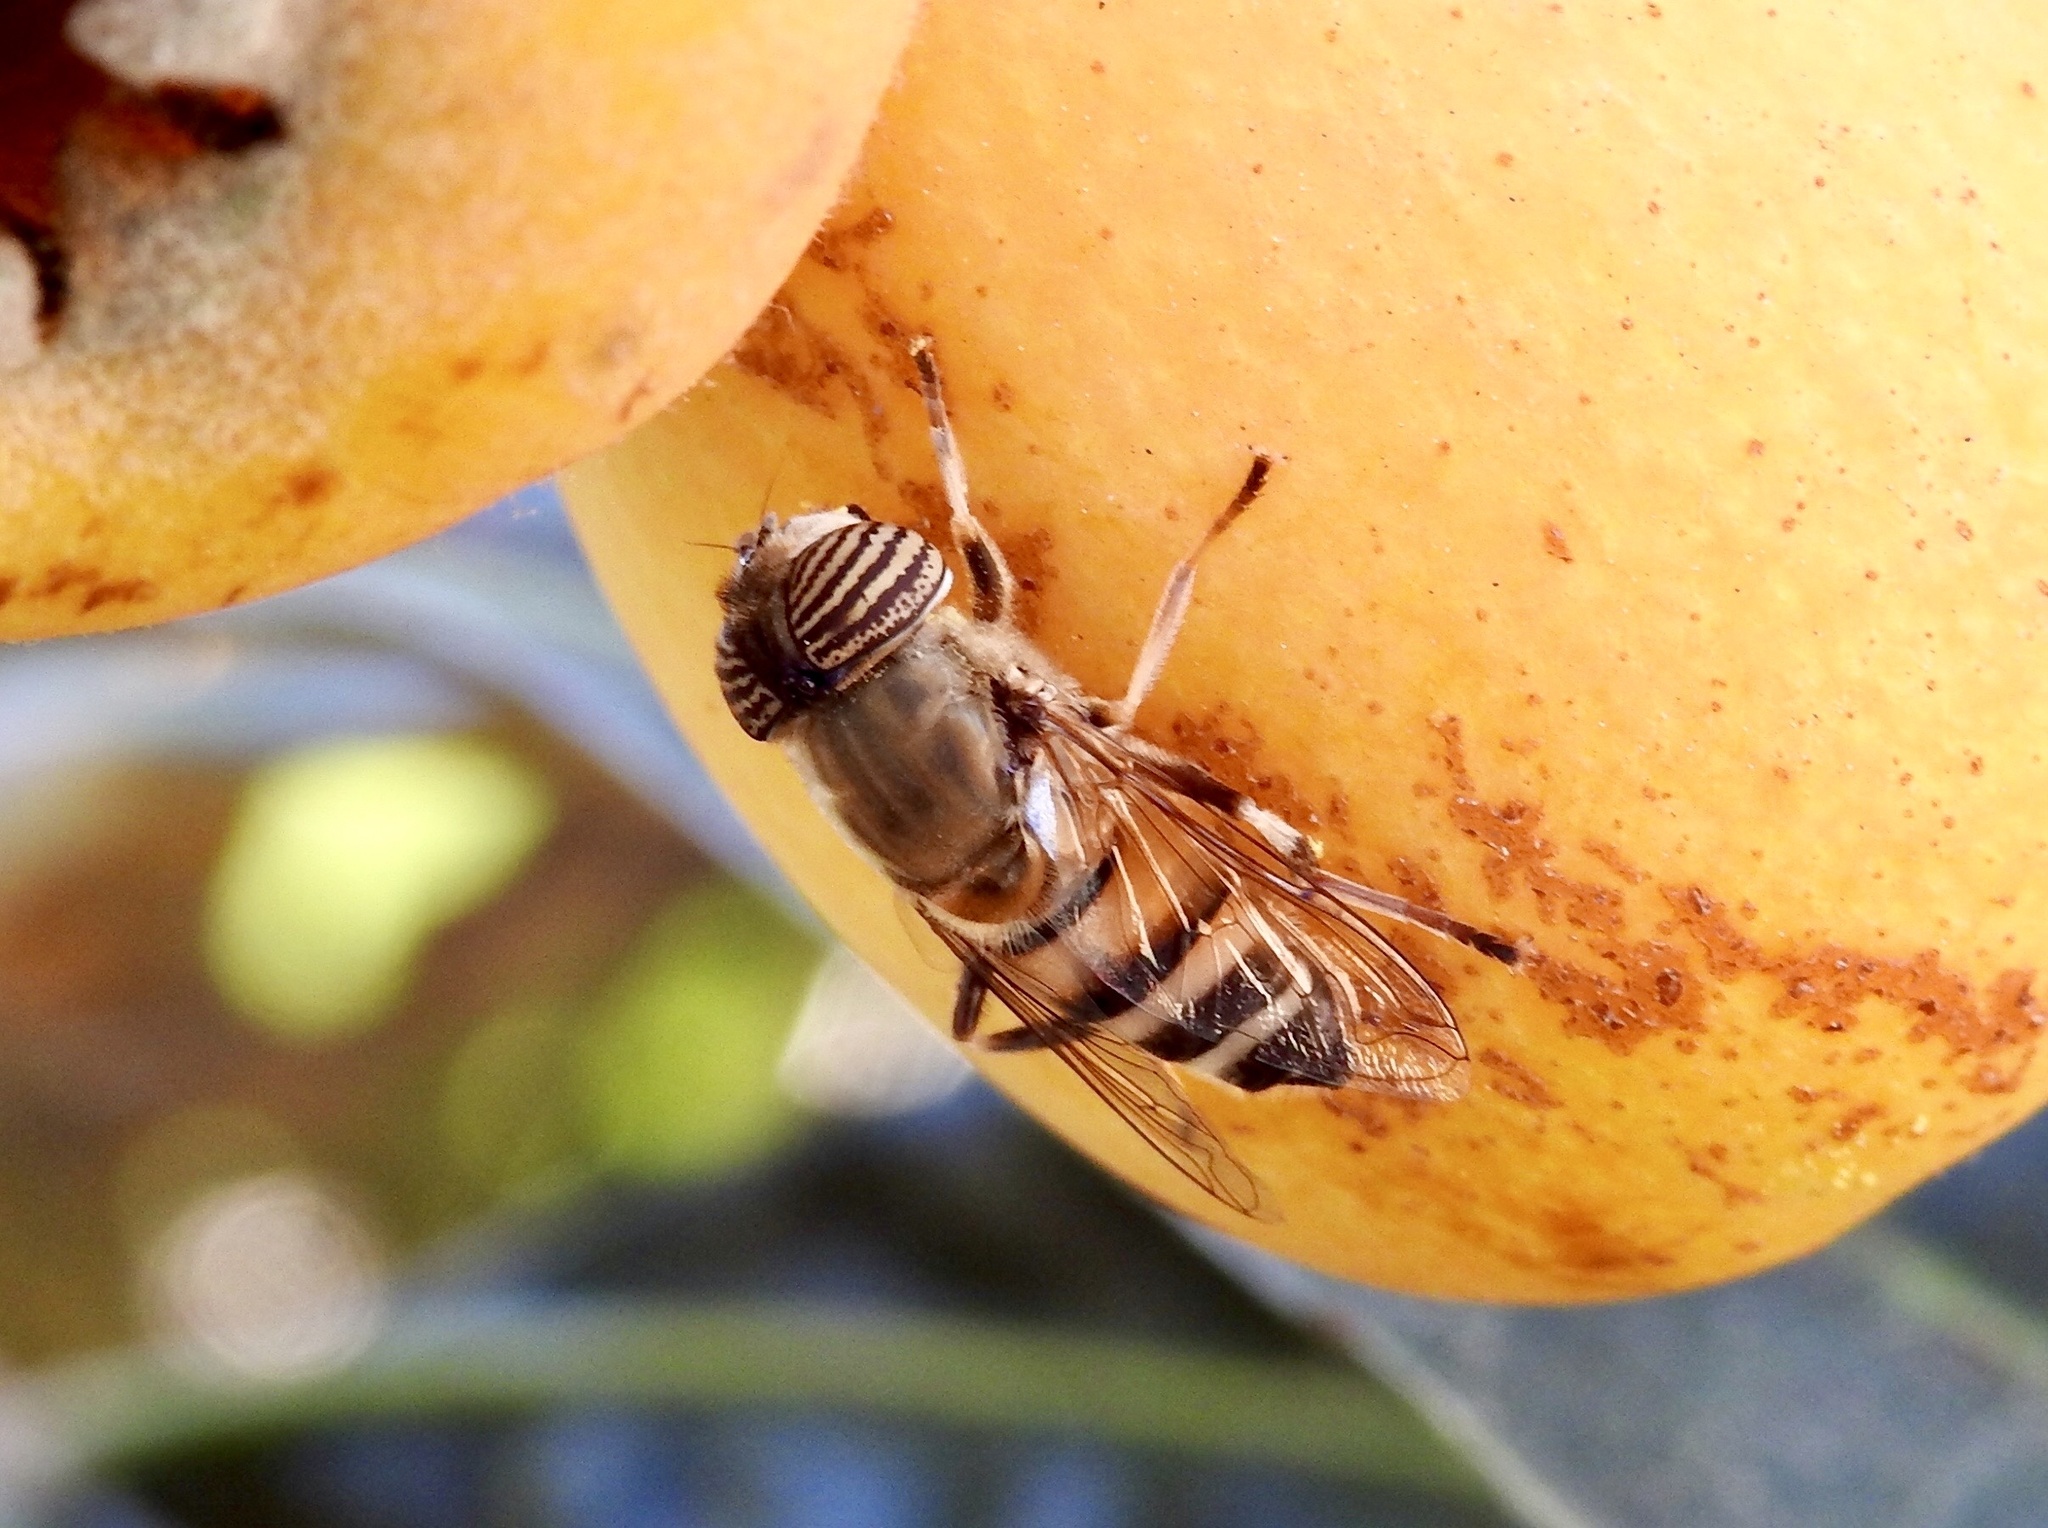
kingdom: Animalia
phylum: Arthropoda
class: Insecta
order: Diptera
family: Syrphidae
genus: Eristalinus
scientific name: Eristalinus taeniops
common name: Syrphid fly
